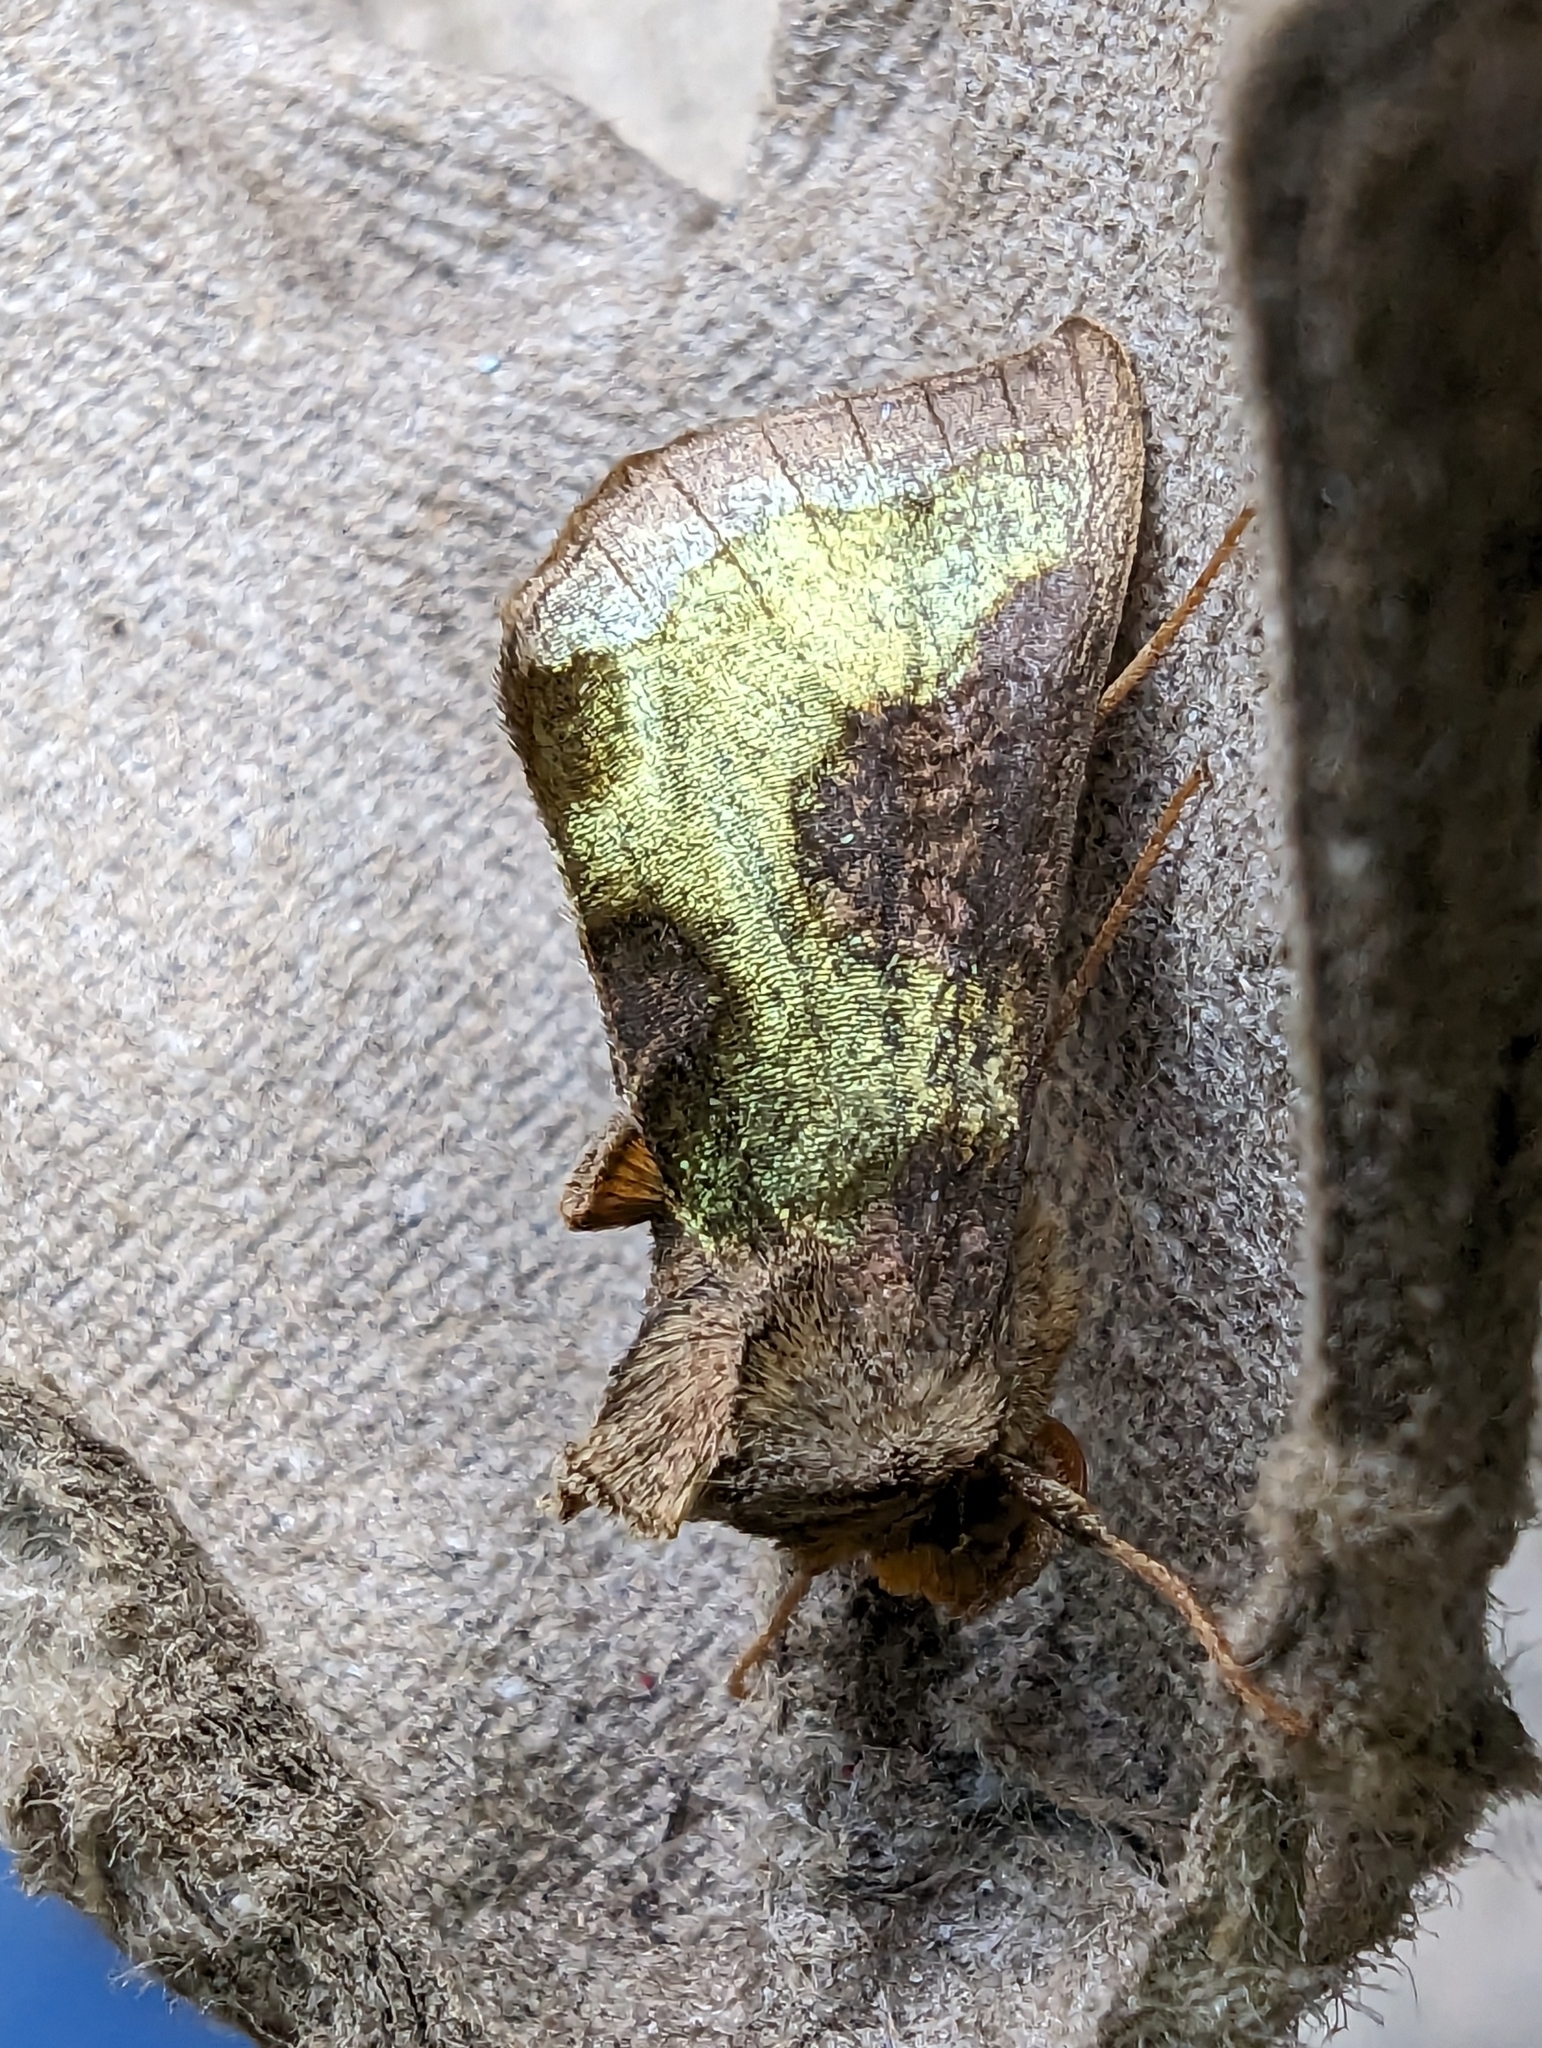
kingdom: Animalia
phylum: Arthropoda
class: Insecta
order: Lepidoptera
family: Noctuidae
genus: Diachrysia
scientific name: Diachrysia chrysitis
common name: Burnished brass
